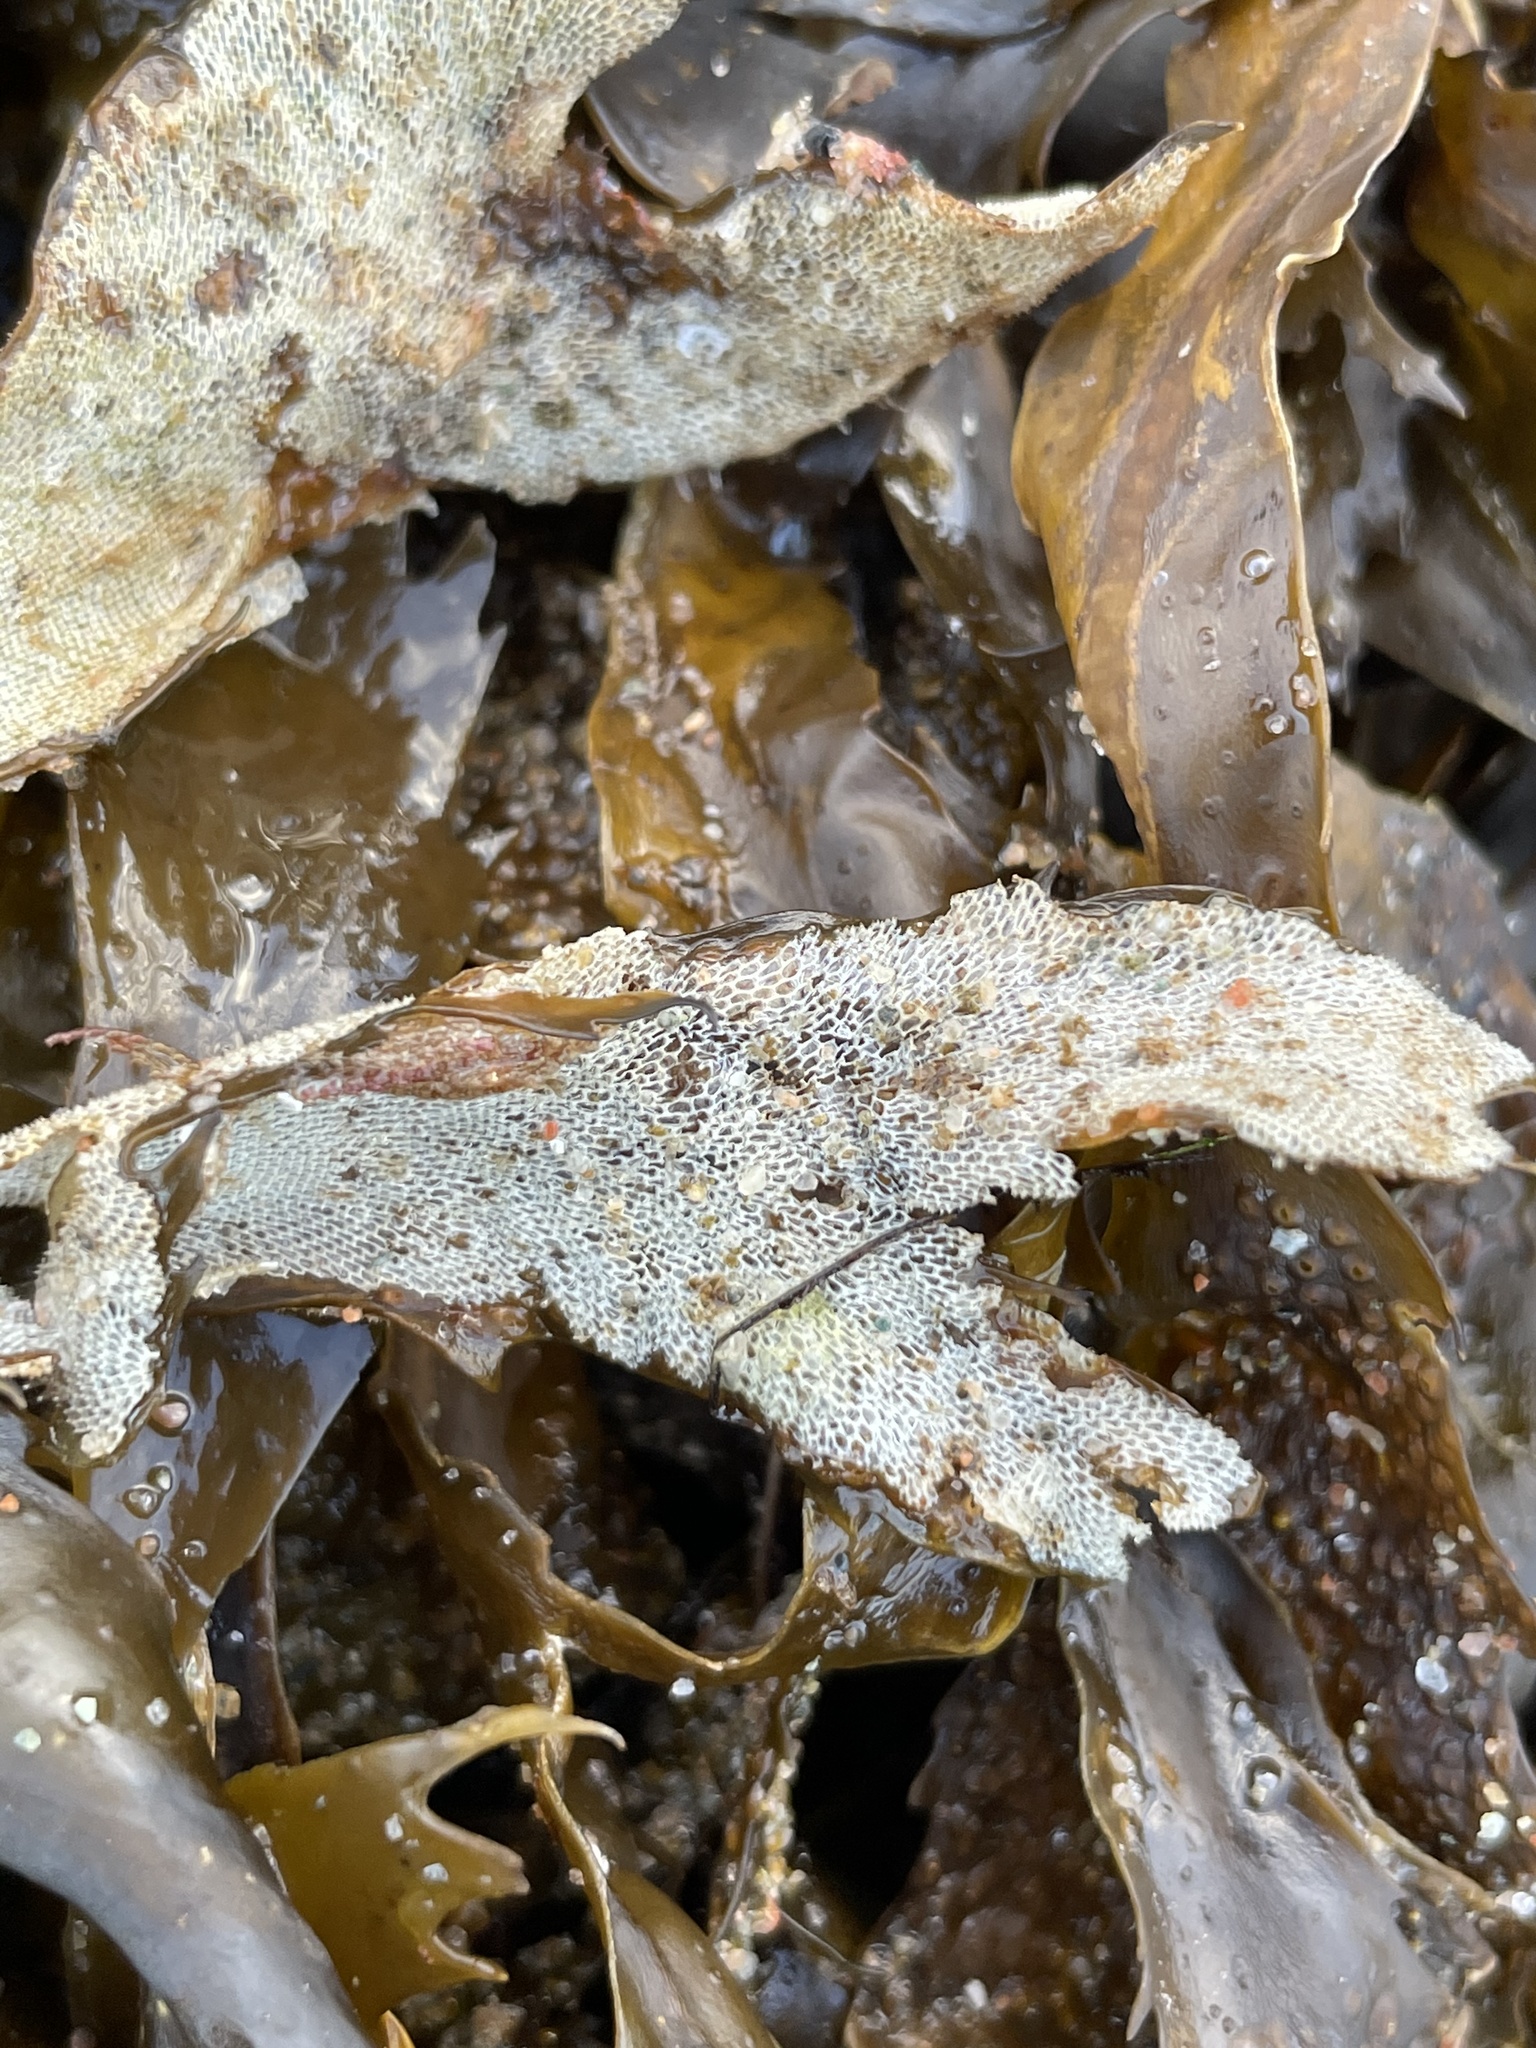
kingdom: Animalia
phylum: Bryozoa
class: Gymnolaemata
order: Cheilostomatida
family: Membraniporidae
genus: Membranipora
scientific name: Membranipora membranacea
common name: Sea mat
